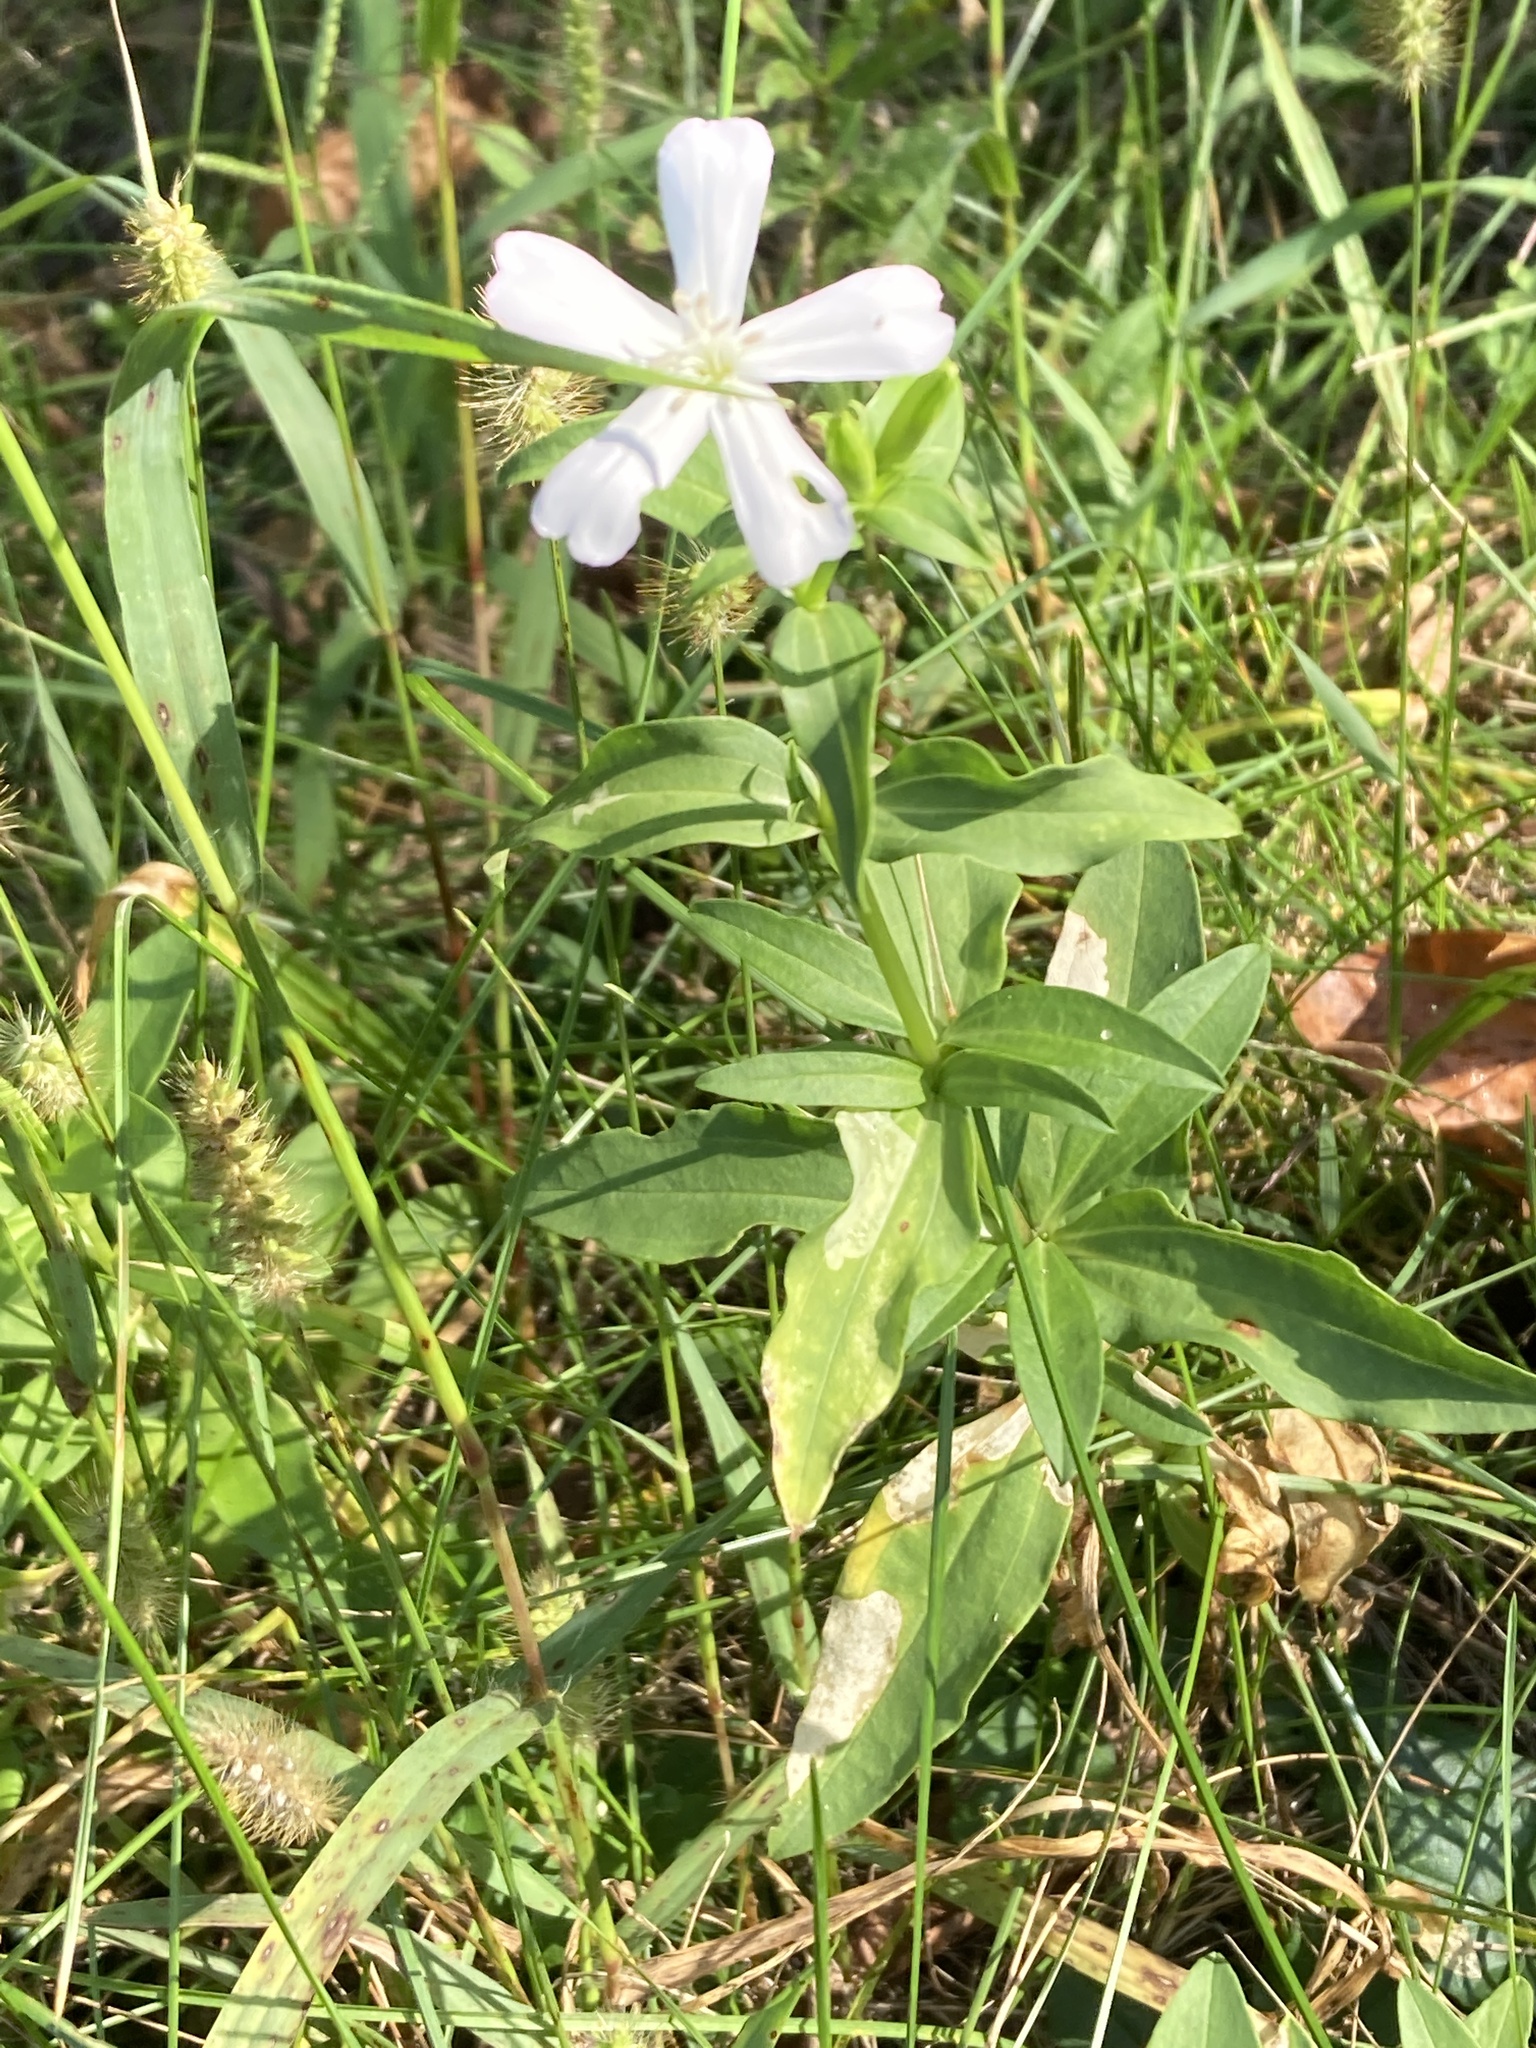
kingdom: Plantae
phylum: Tracheophyta
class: Magnoliopsida
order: Caryophyllales
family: Caryophyllaceae
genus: Saponaria
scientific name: Saponaria officinalis
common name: Soapwort
